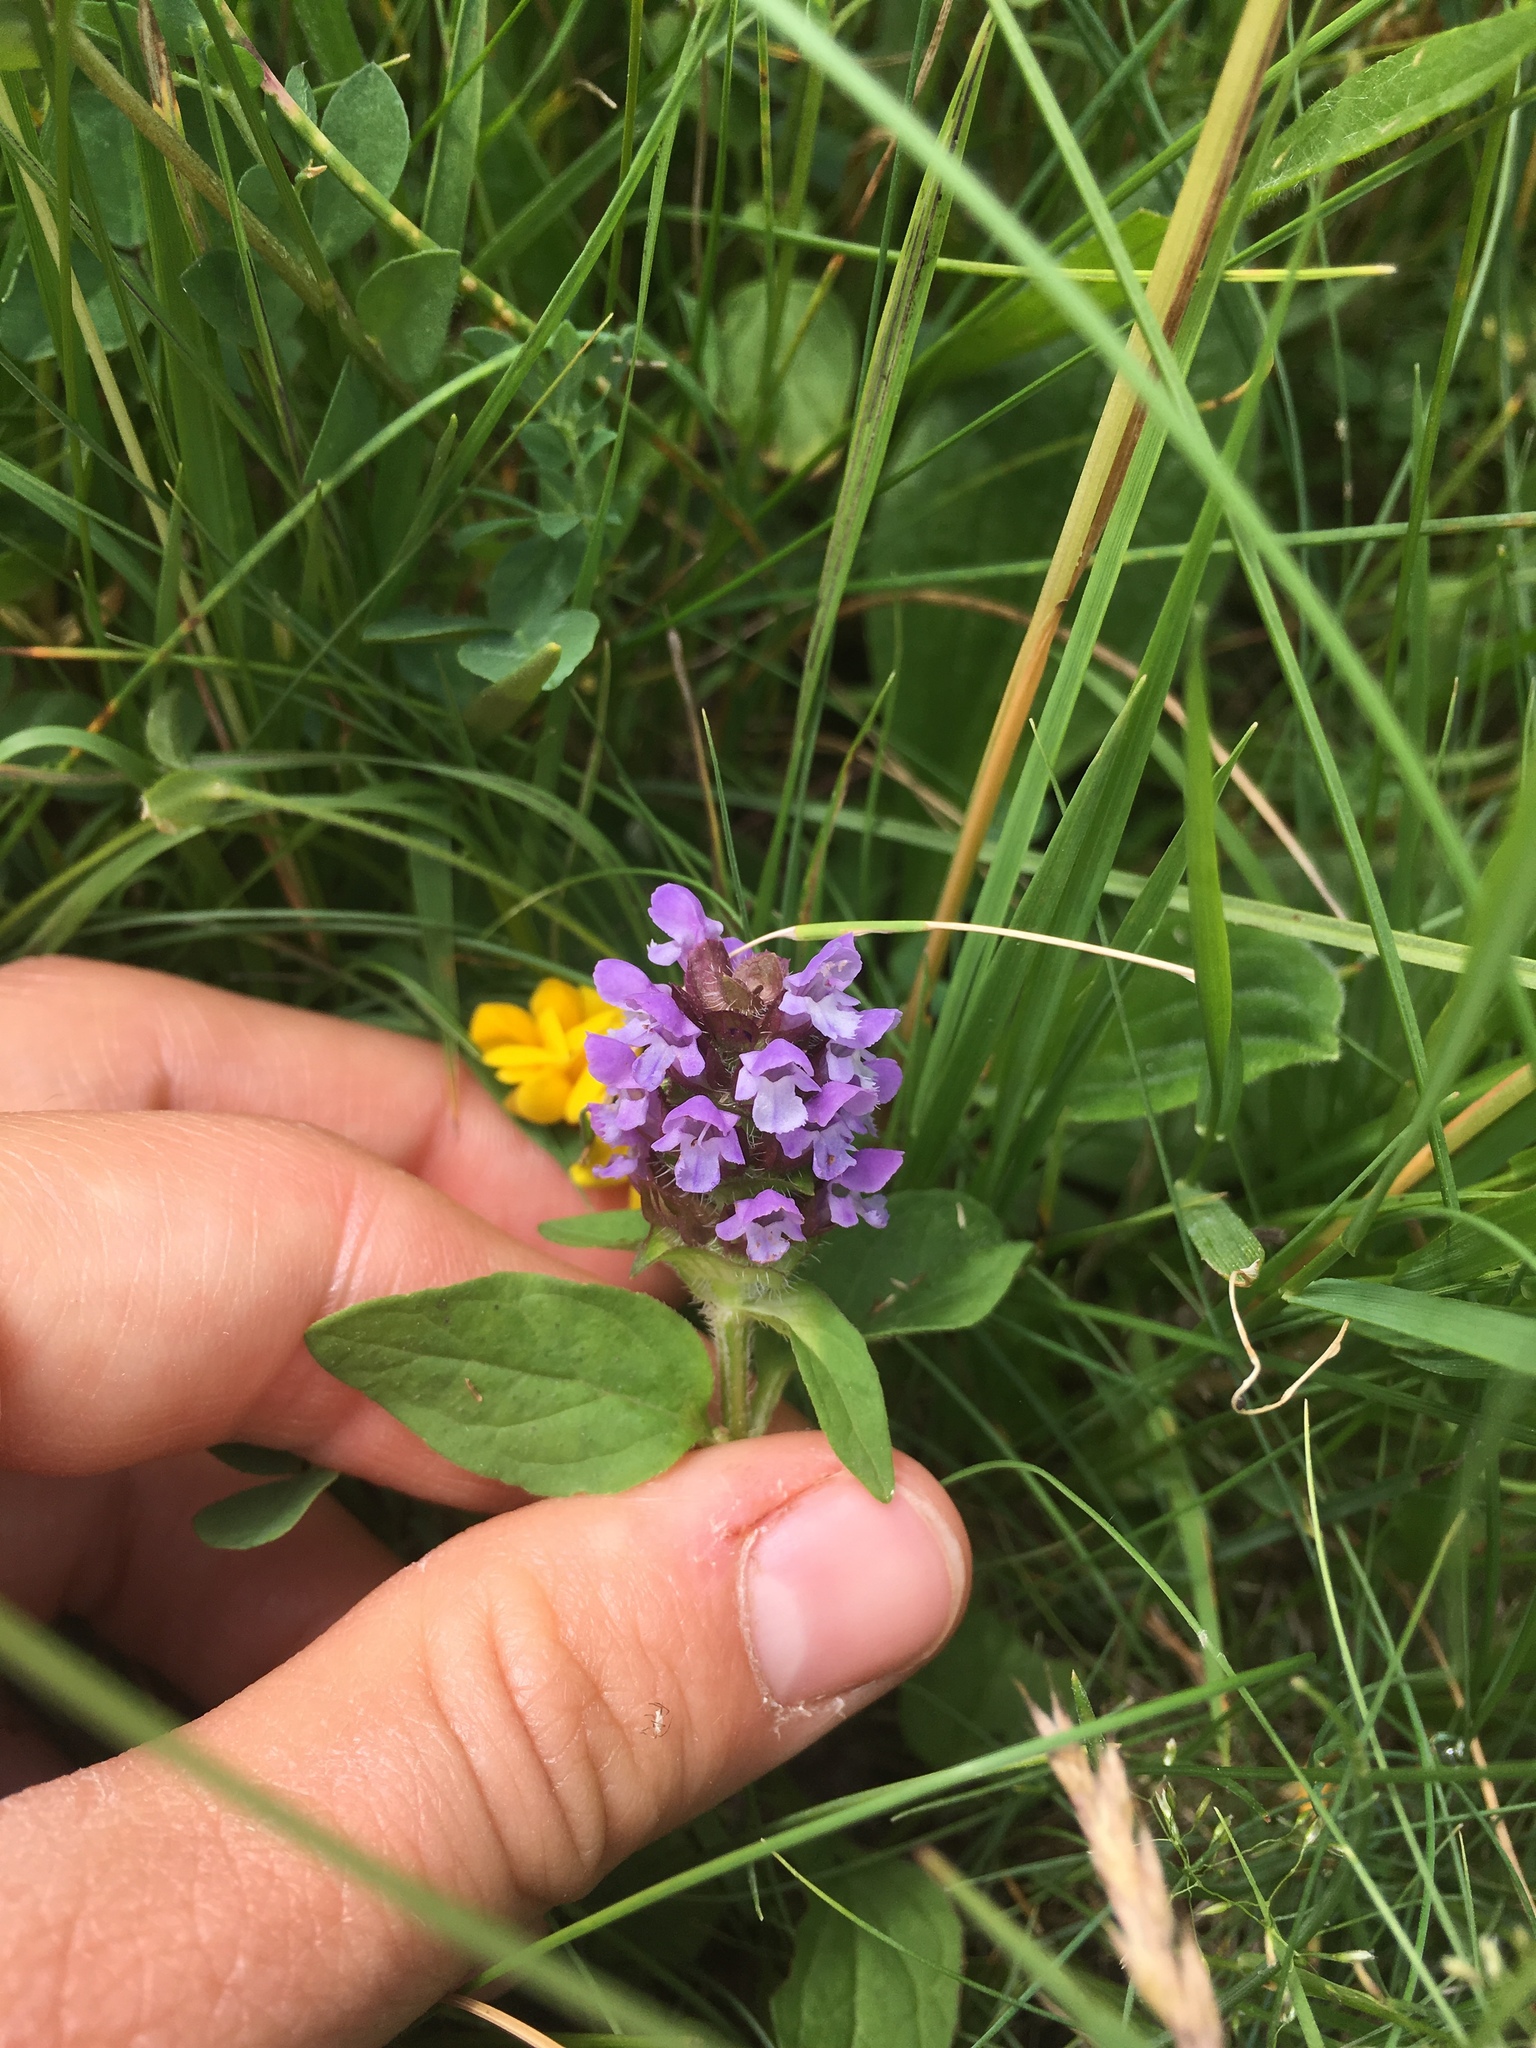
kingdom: Plantae
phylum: Tracheophyta
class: Magnoliopsida
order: Lamiales
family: Lamiaceae
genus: Prunella
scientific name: Prunella vulgaris
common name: Heal-all
